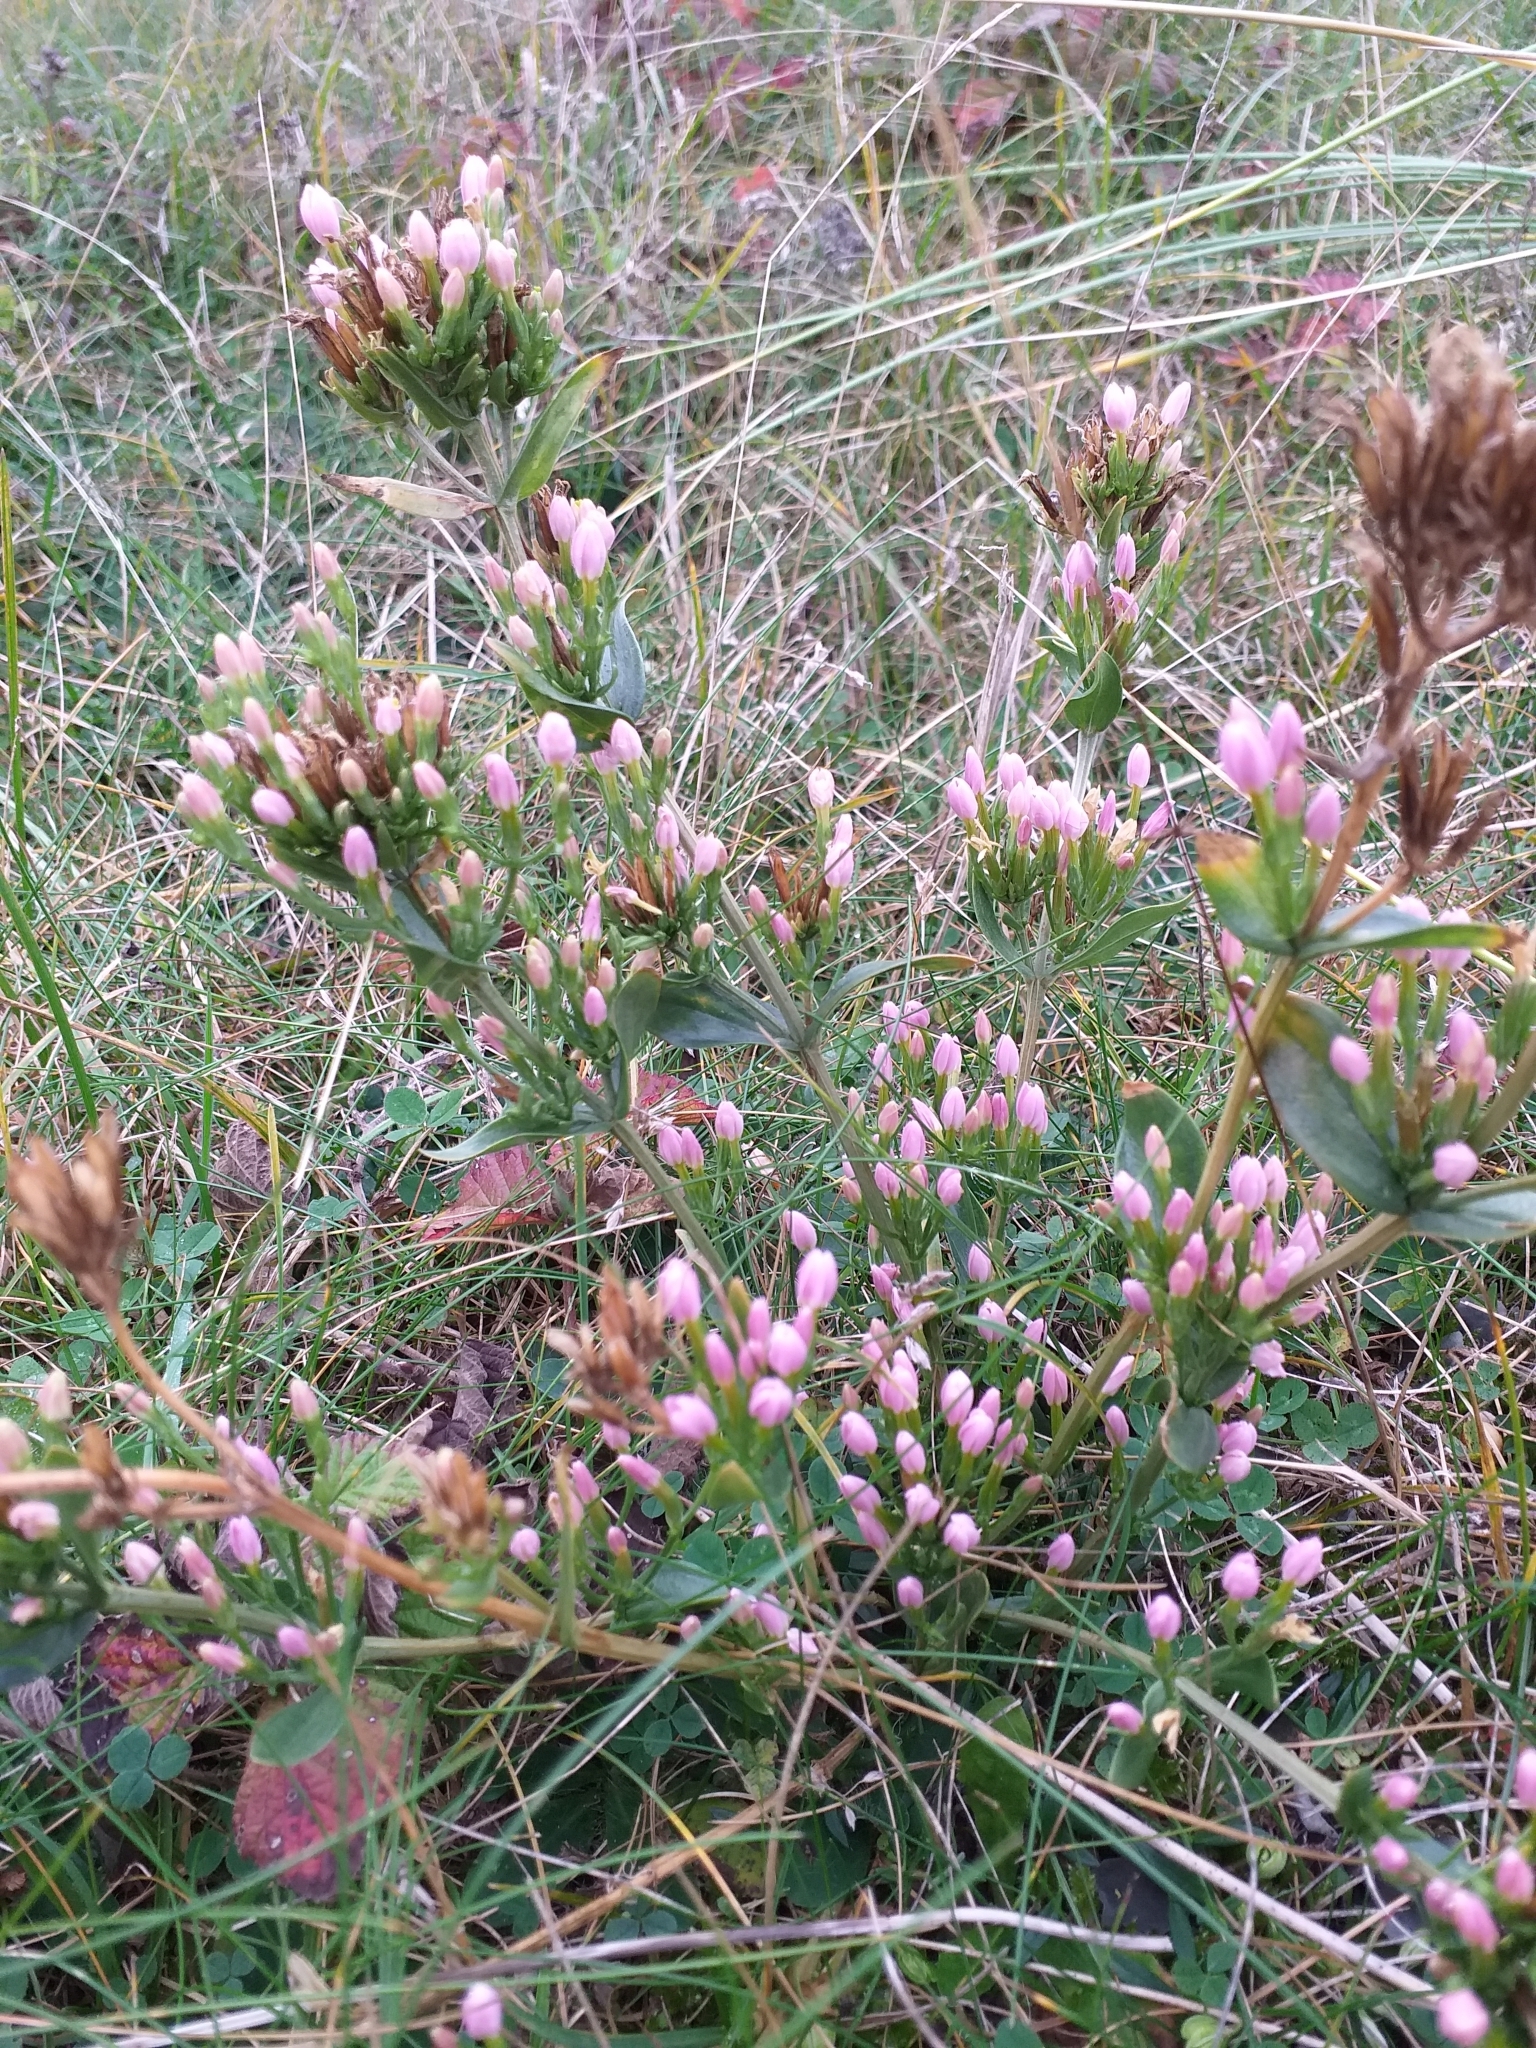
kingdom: Plantae
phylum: Tracheophyta
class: Magnoliopsida
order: Gentianales
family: Gentianaceae
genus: Centaurium
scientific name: Centaurium erythraea
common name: Common centaury
